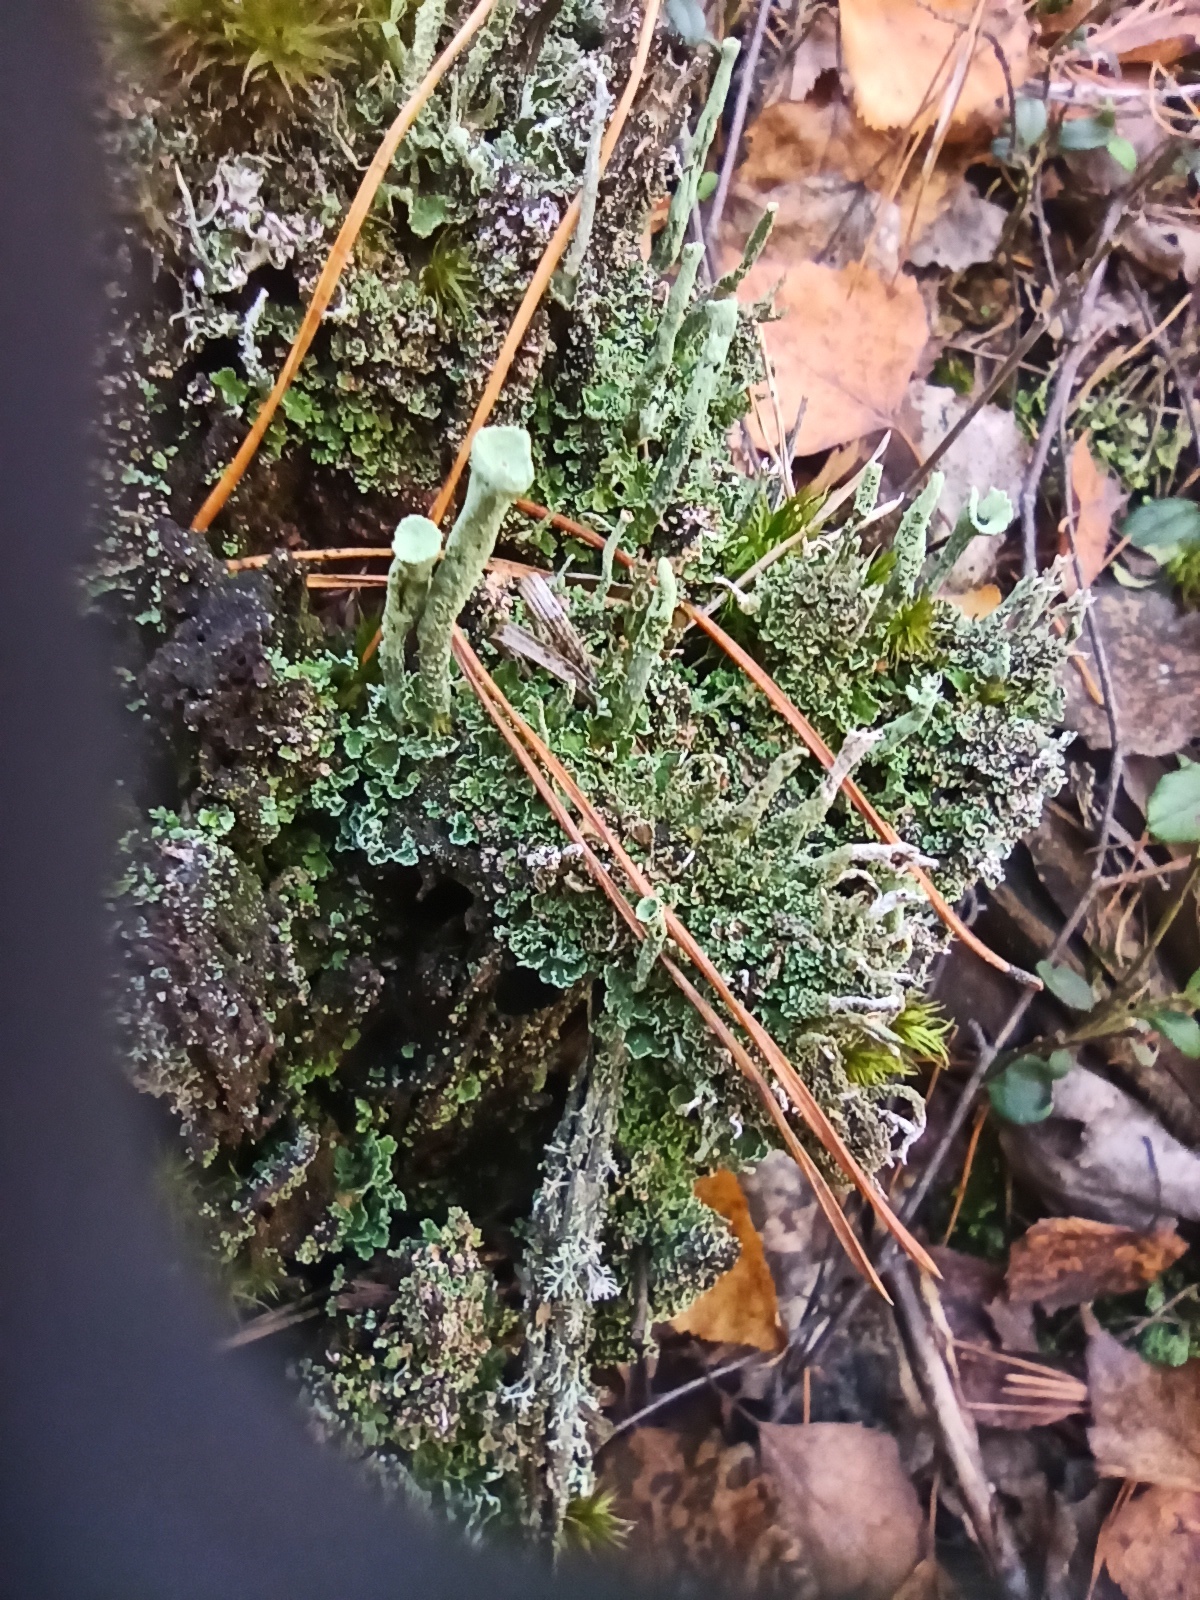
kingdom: Fungi
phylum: Ascomycota
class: Lecanoromycetes
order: Lecanorales
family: Cladoniaceae
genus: Cladonia
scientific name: Cladonia fimbriata
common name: Powdered trumpet lichen
